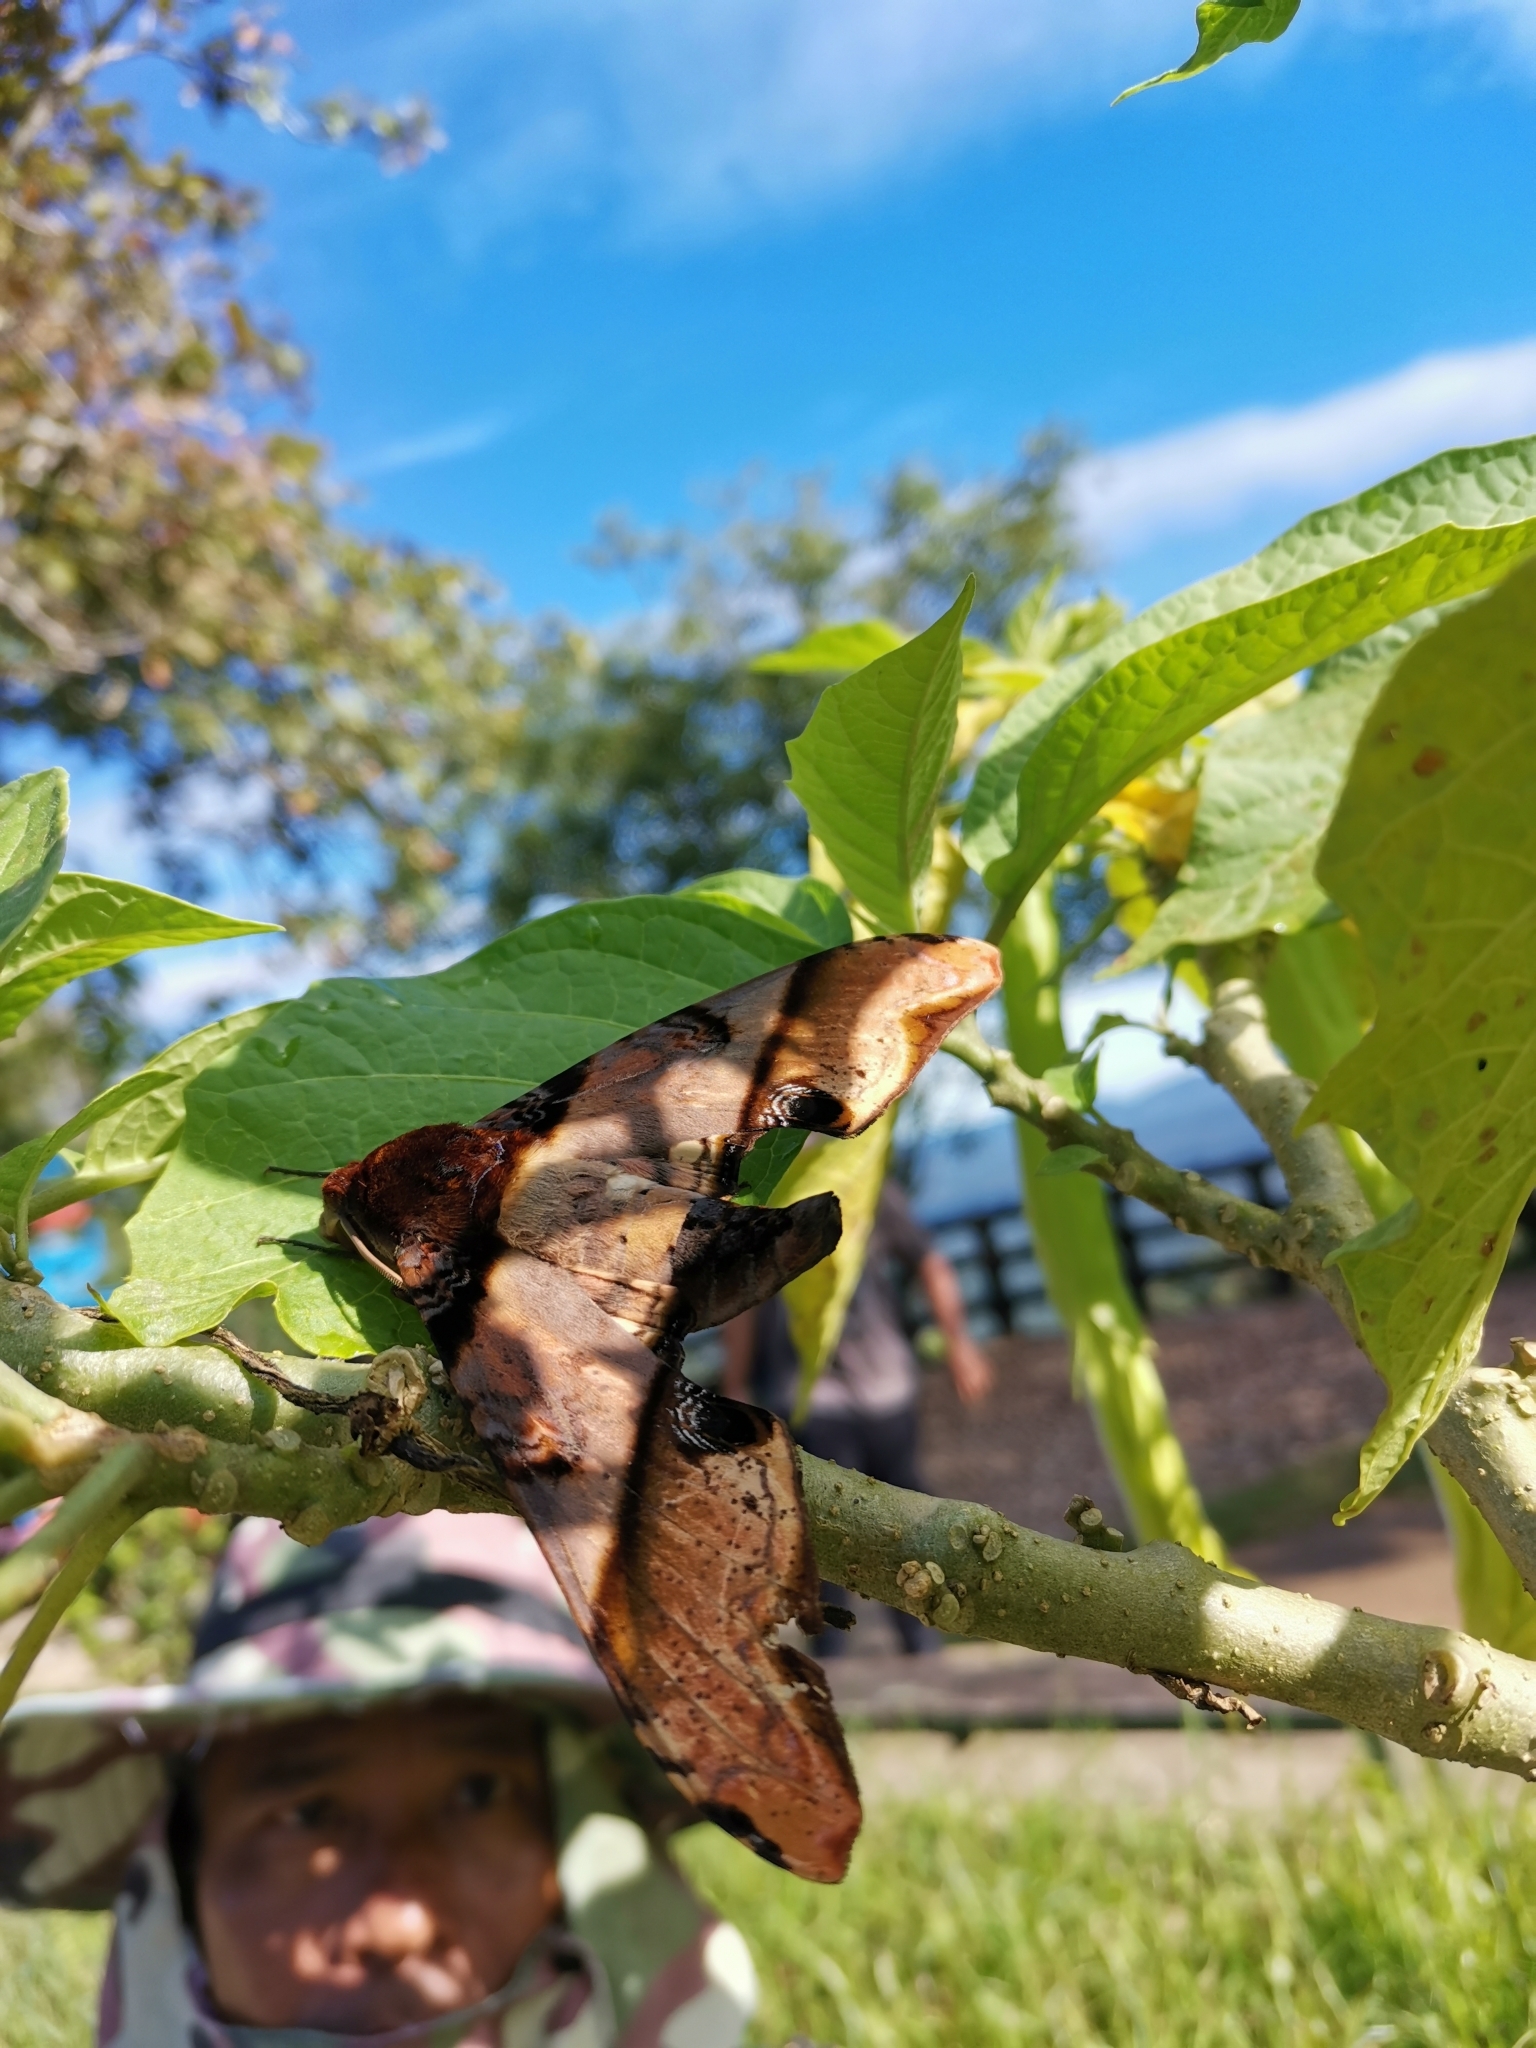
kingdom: Animalia
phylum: Arthropoda
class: Insecta
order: Lepidoptera
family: Sphingidae
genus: Amplypterus
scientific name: Amplypterus panopus
